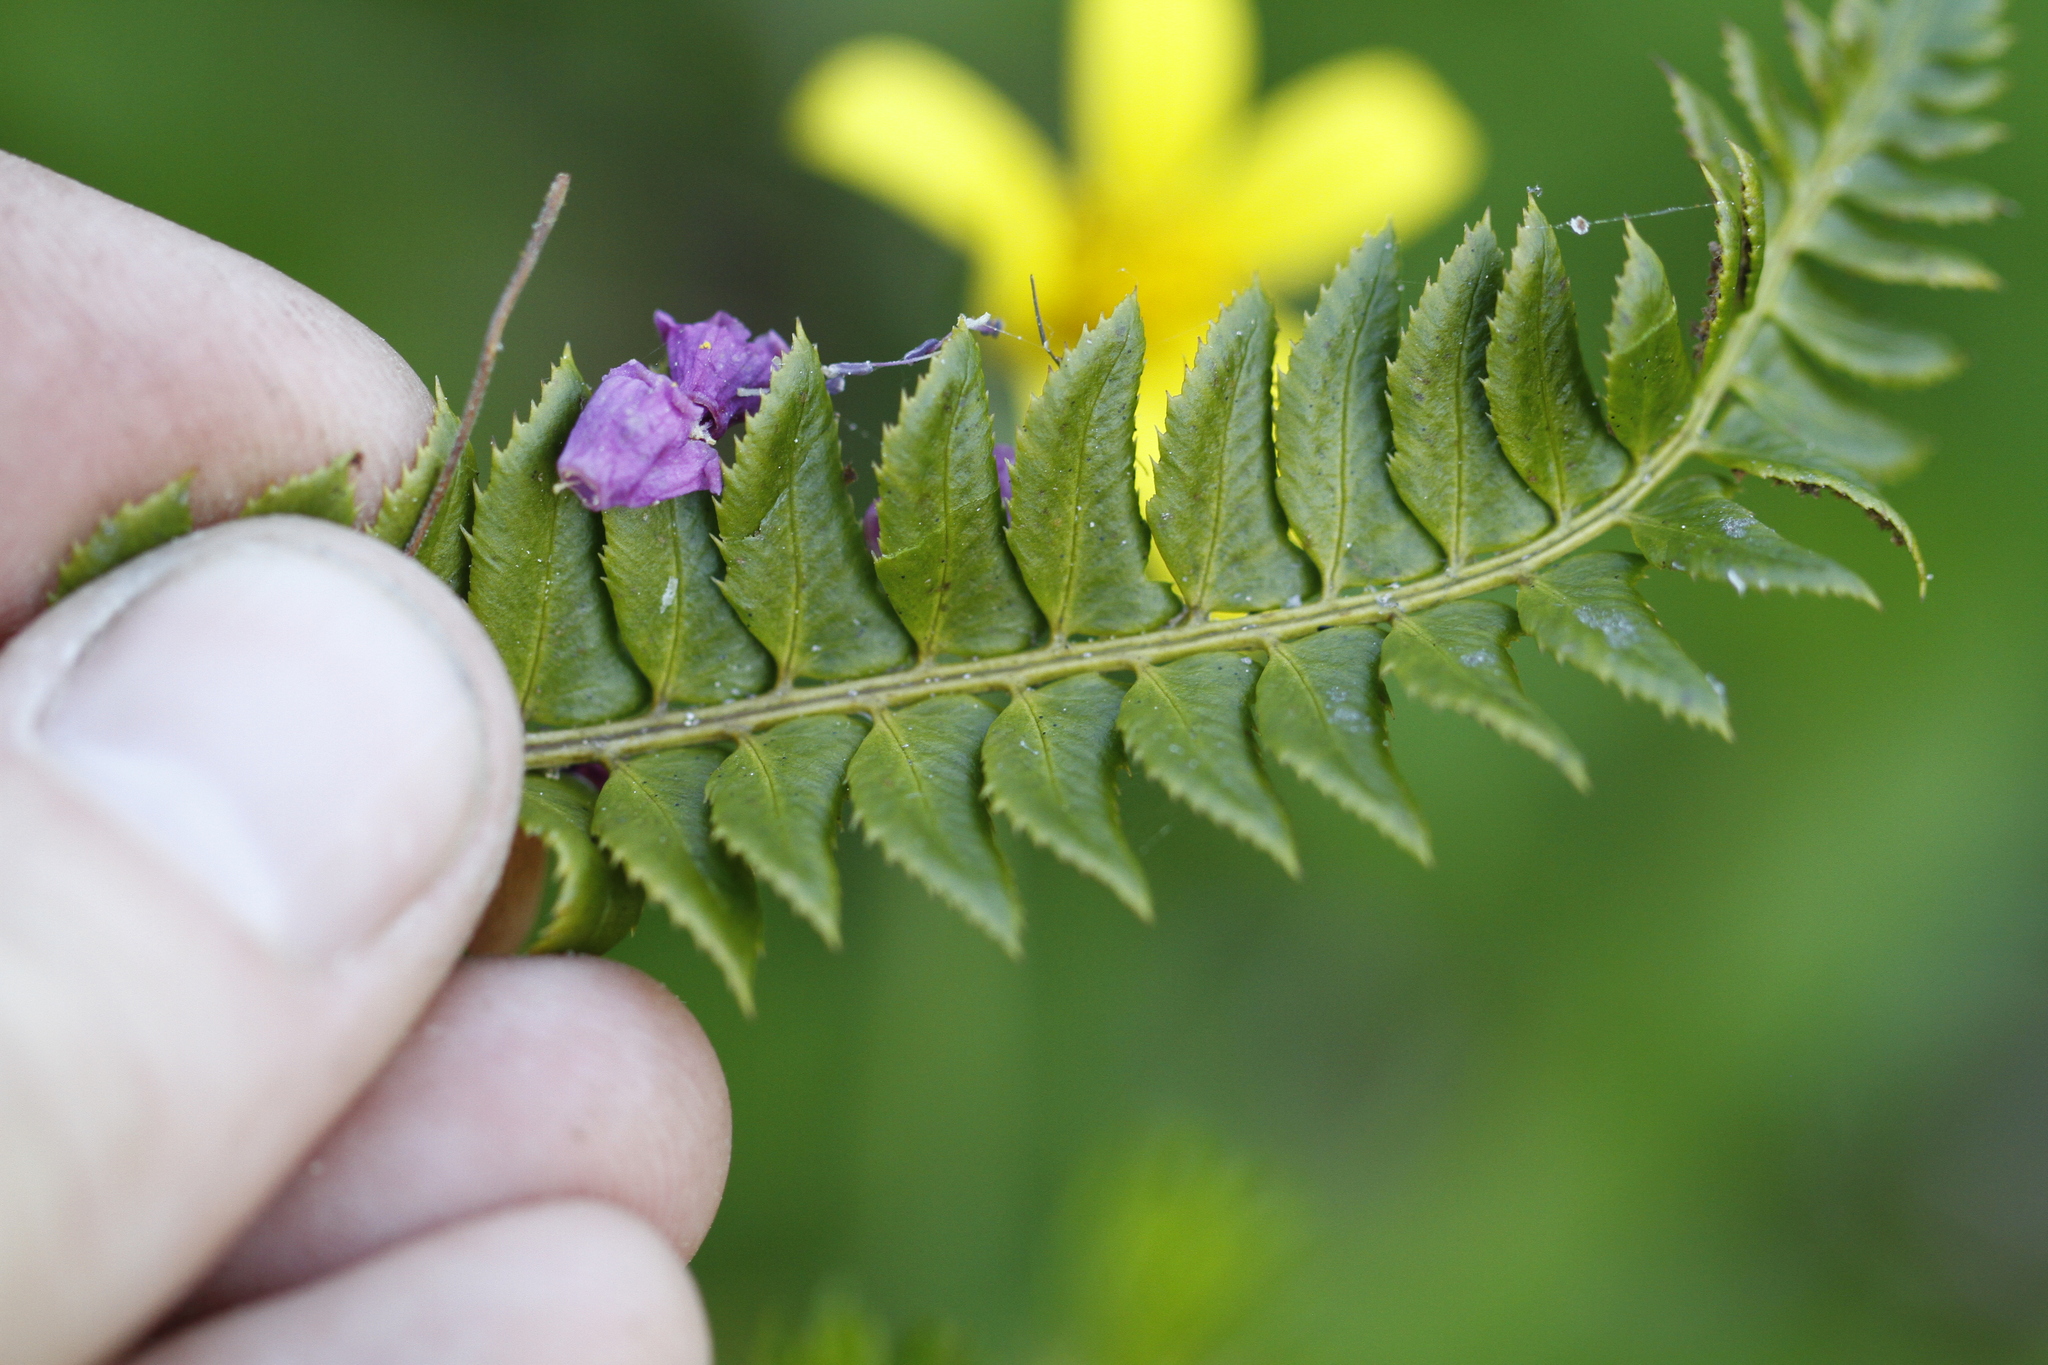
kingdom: Plantae
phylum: Tracheophyta
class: Polypodiopsida
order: Polypodiales
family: Dryopteridaceae
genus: Polystichum
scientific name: Polystichum lonchitis
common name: Holly fern
